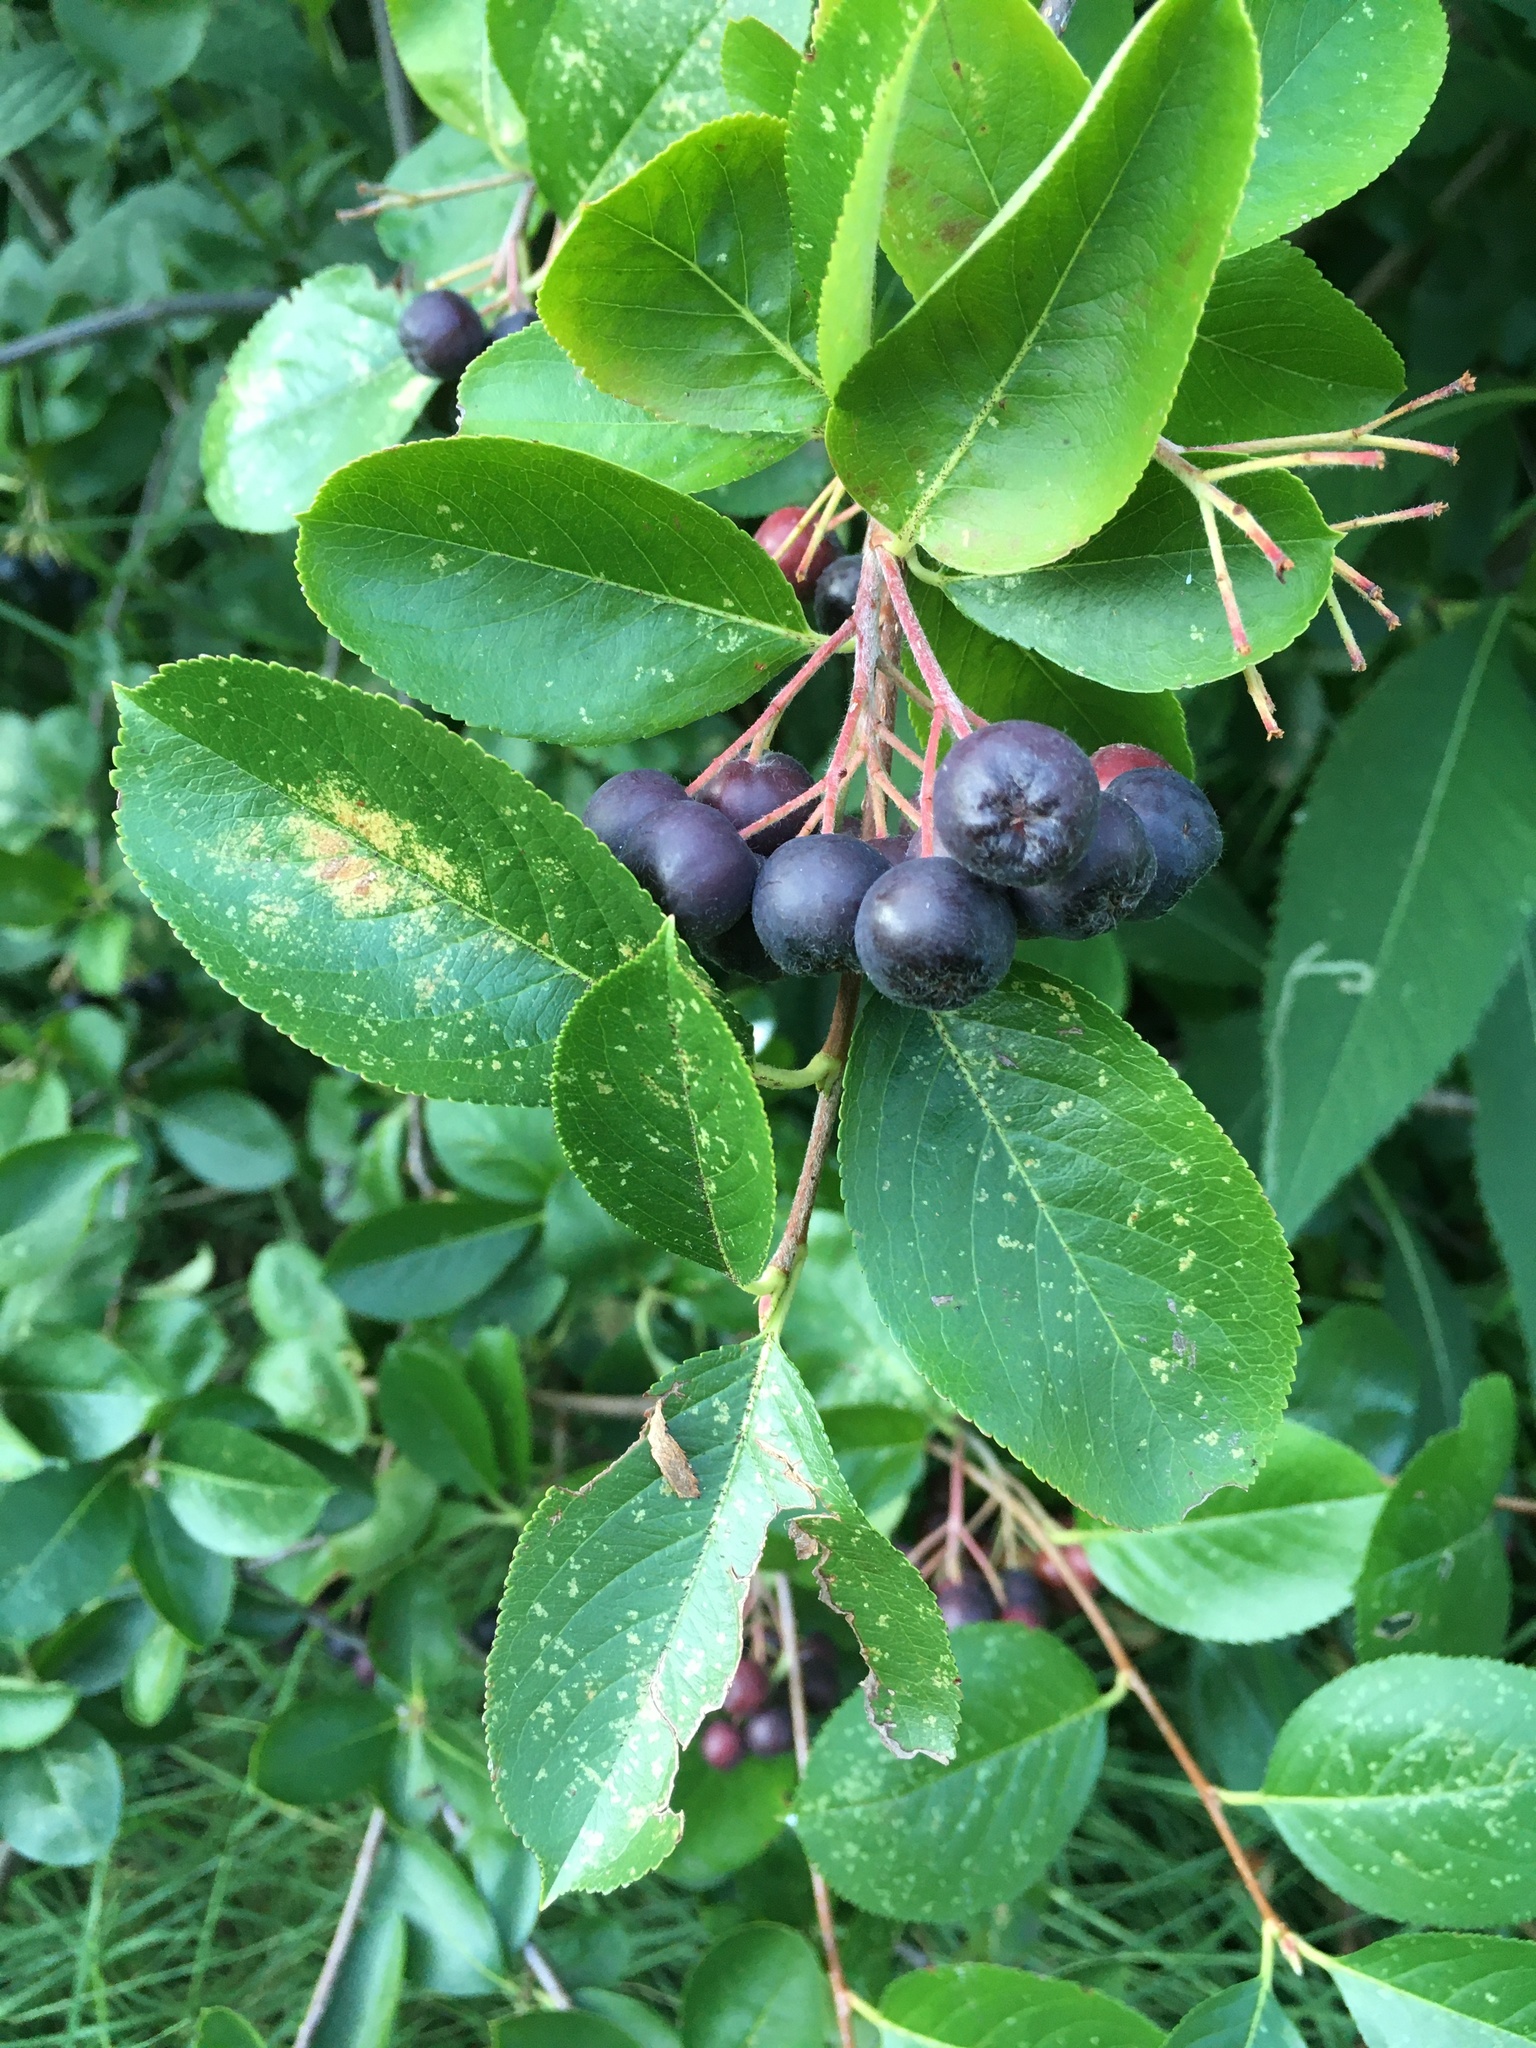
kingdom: Plantae
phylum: Tracheophyta
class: Magnoliopsida
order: Rosales
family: Rosaceae
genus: Aronia
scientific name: Aronia melanocarpa
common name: Black chokeberry
